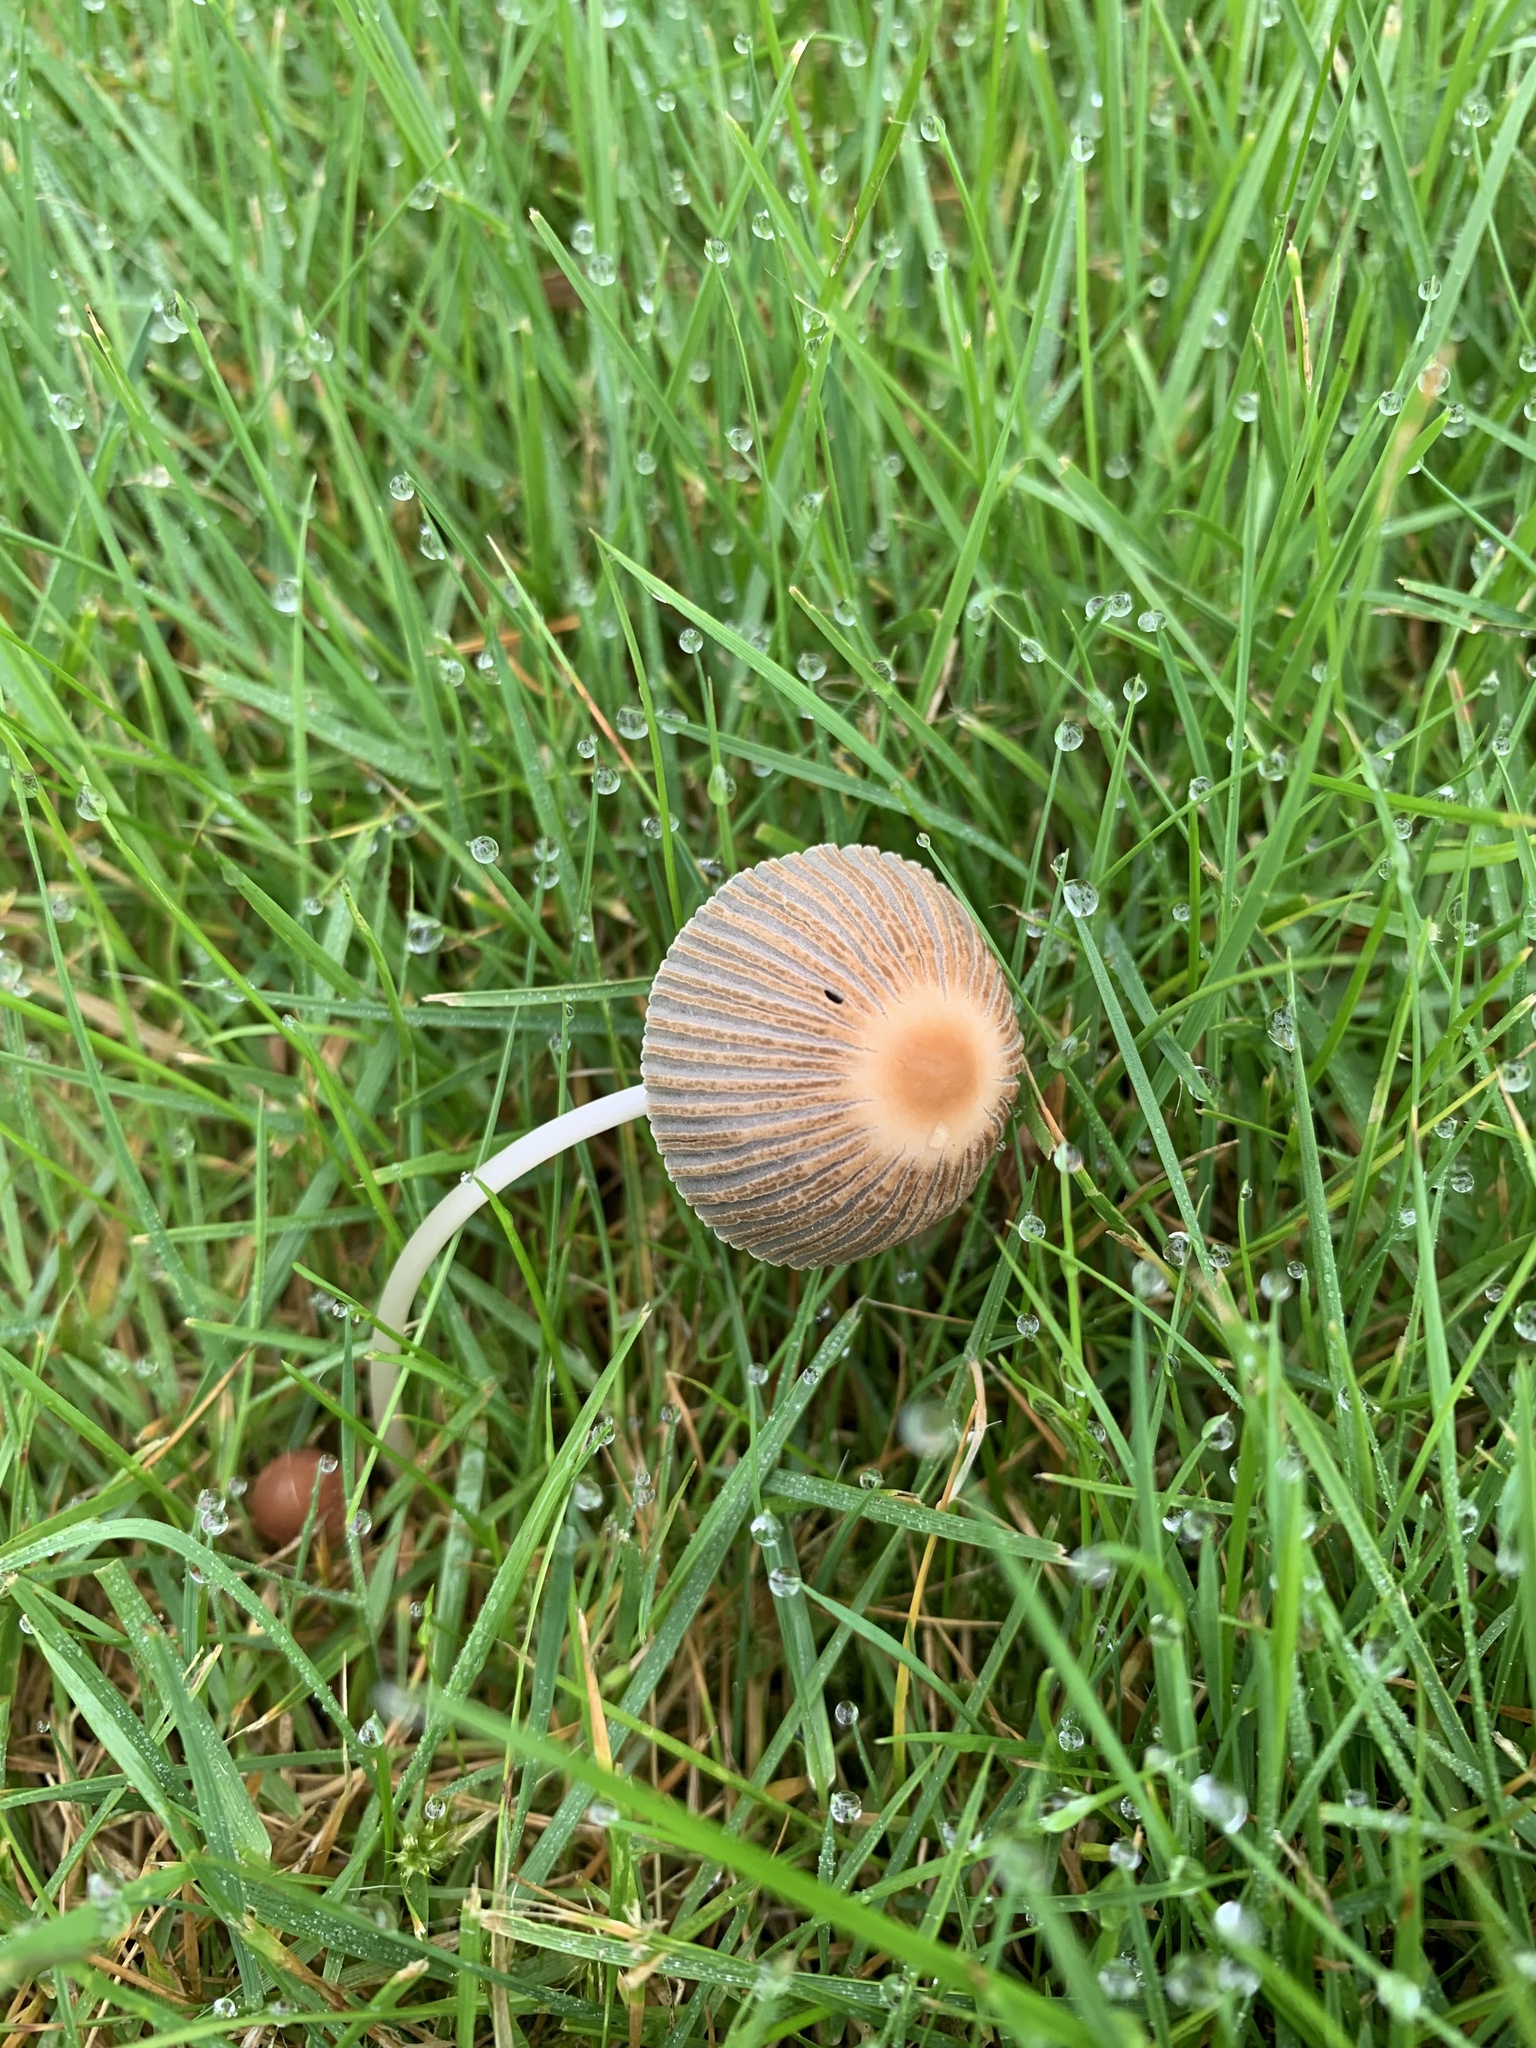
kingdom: Fungi
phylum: Basidiomycota
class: Agaricomycetes
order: Agaricales
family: Psathyrellaceae
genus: Parasola
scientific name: Parasola plicatilis
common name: Pleated inkcap
